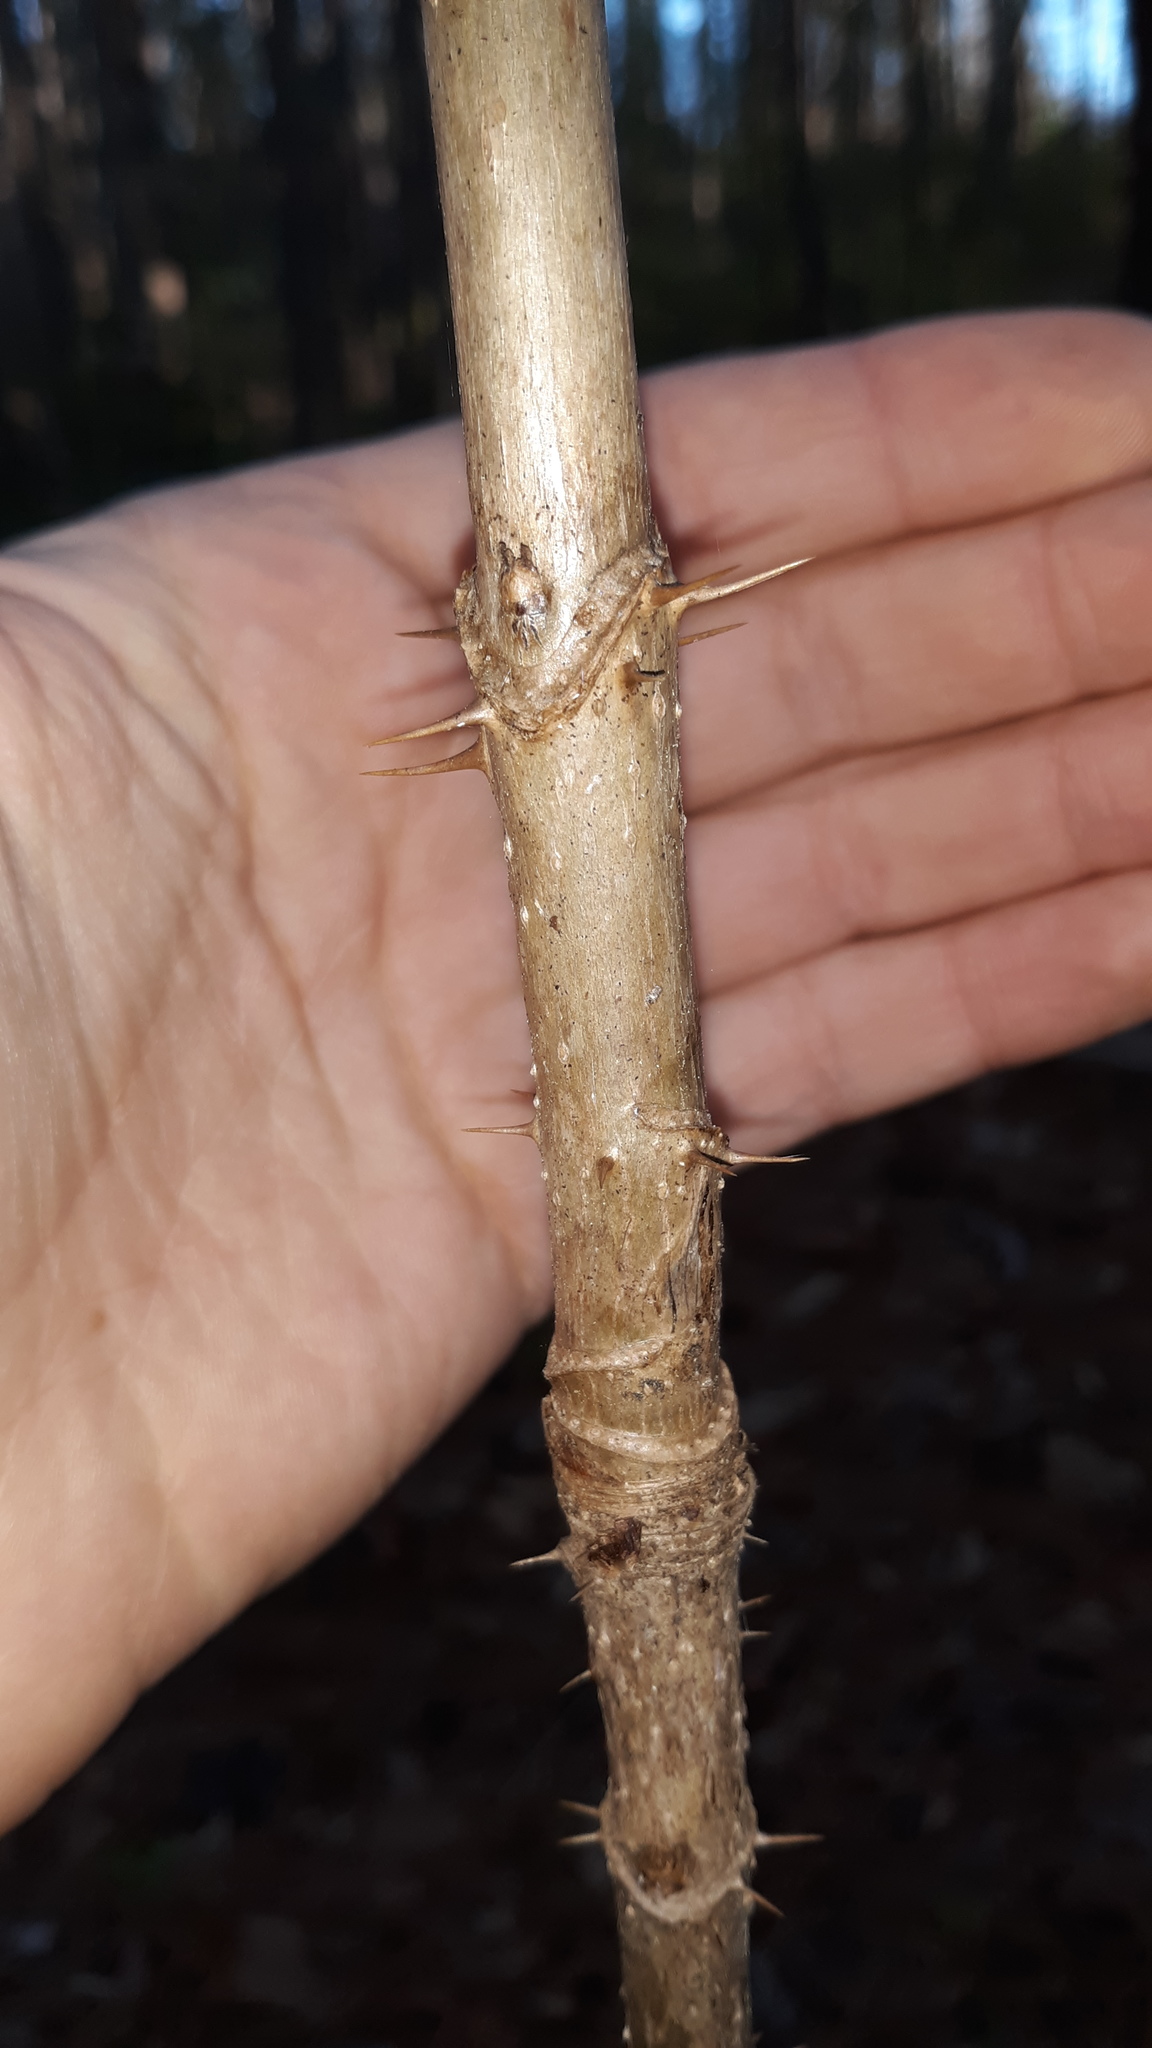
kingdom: Plantae
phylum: Tracheophyta
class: Magnoliopsida
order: Apiales
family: Araliaceae
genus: Aralia
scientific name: Aralia spinosa
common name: Hercules'-club
